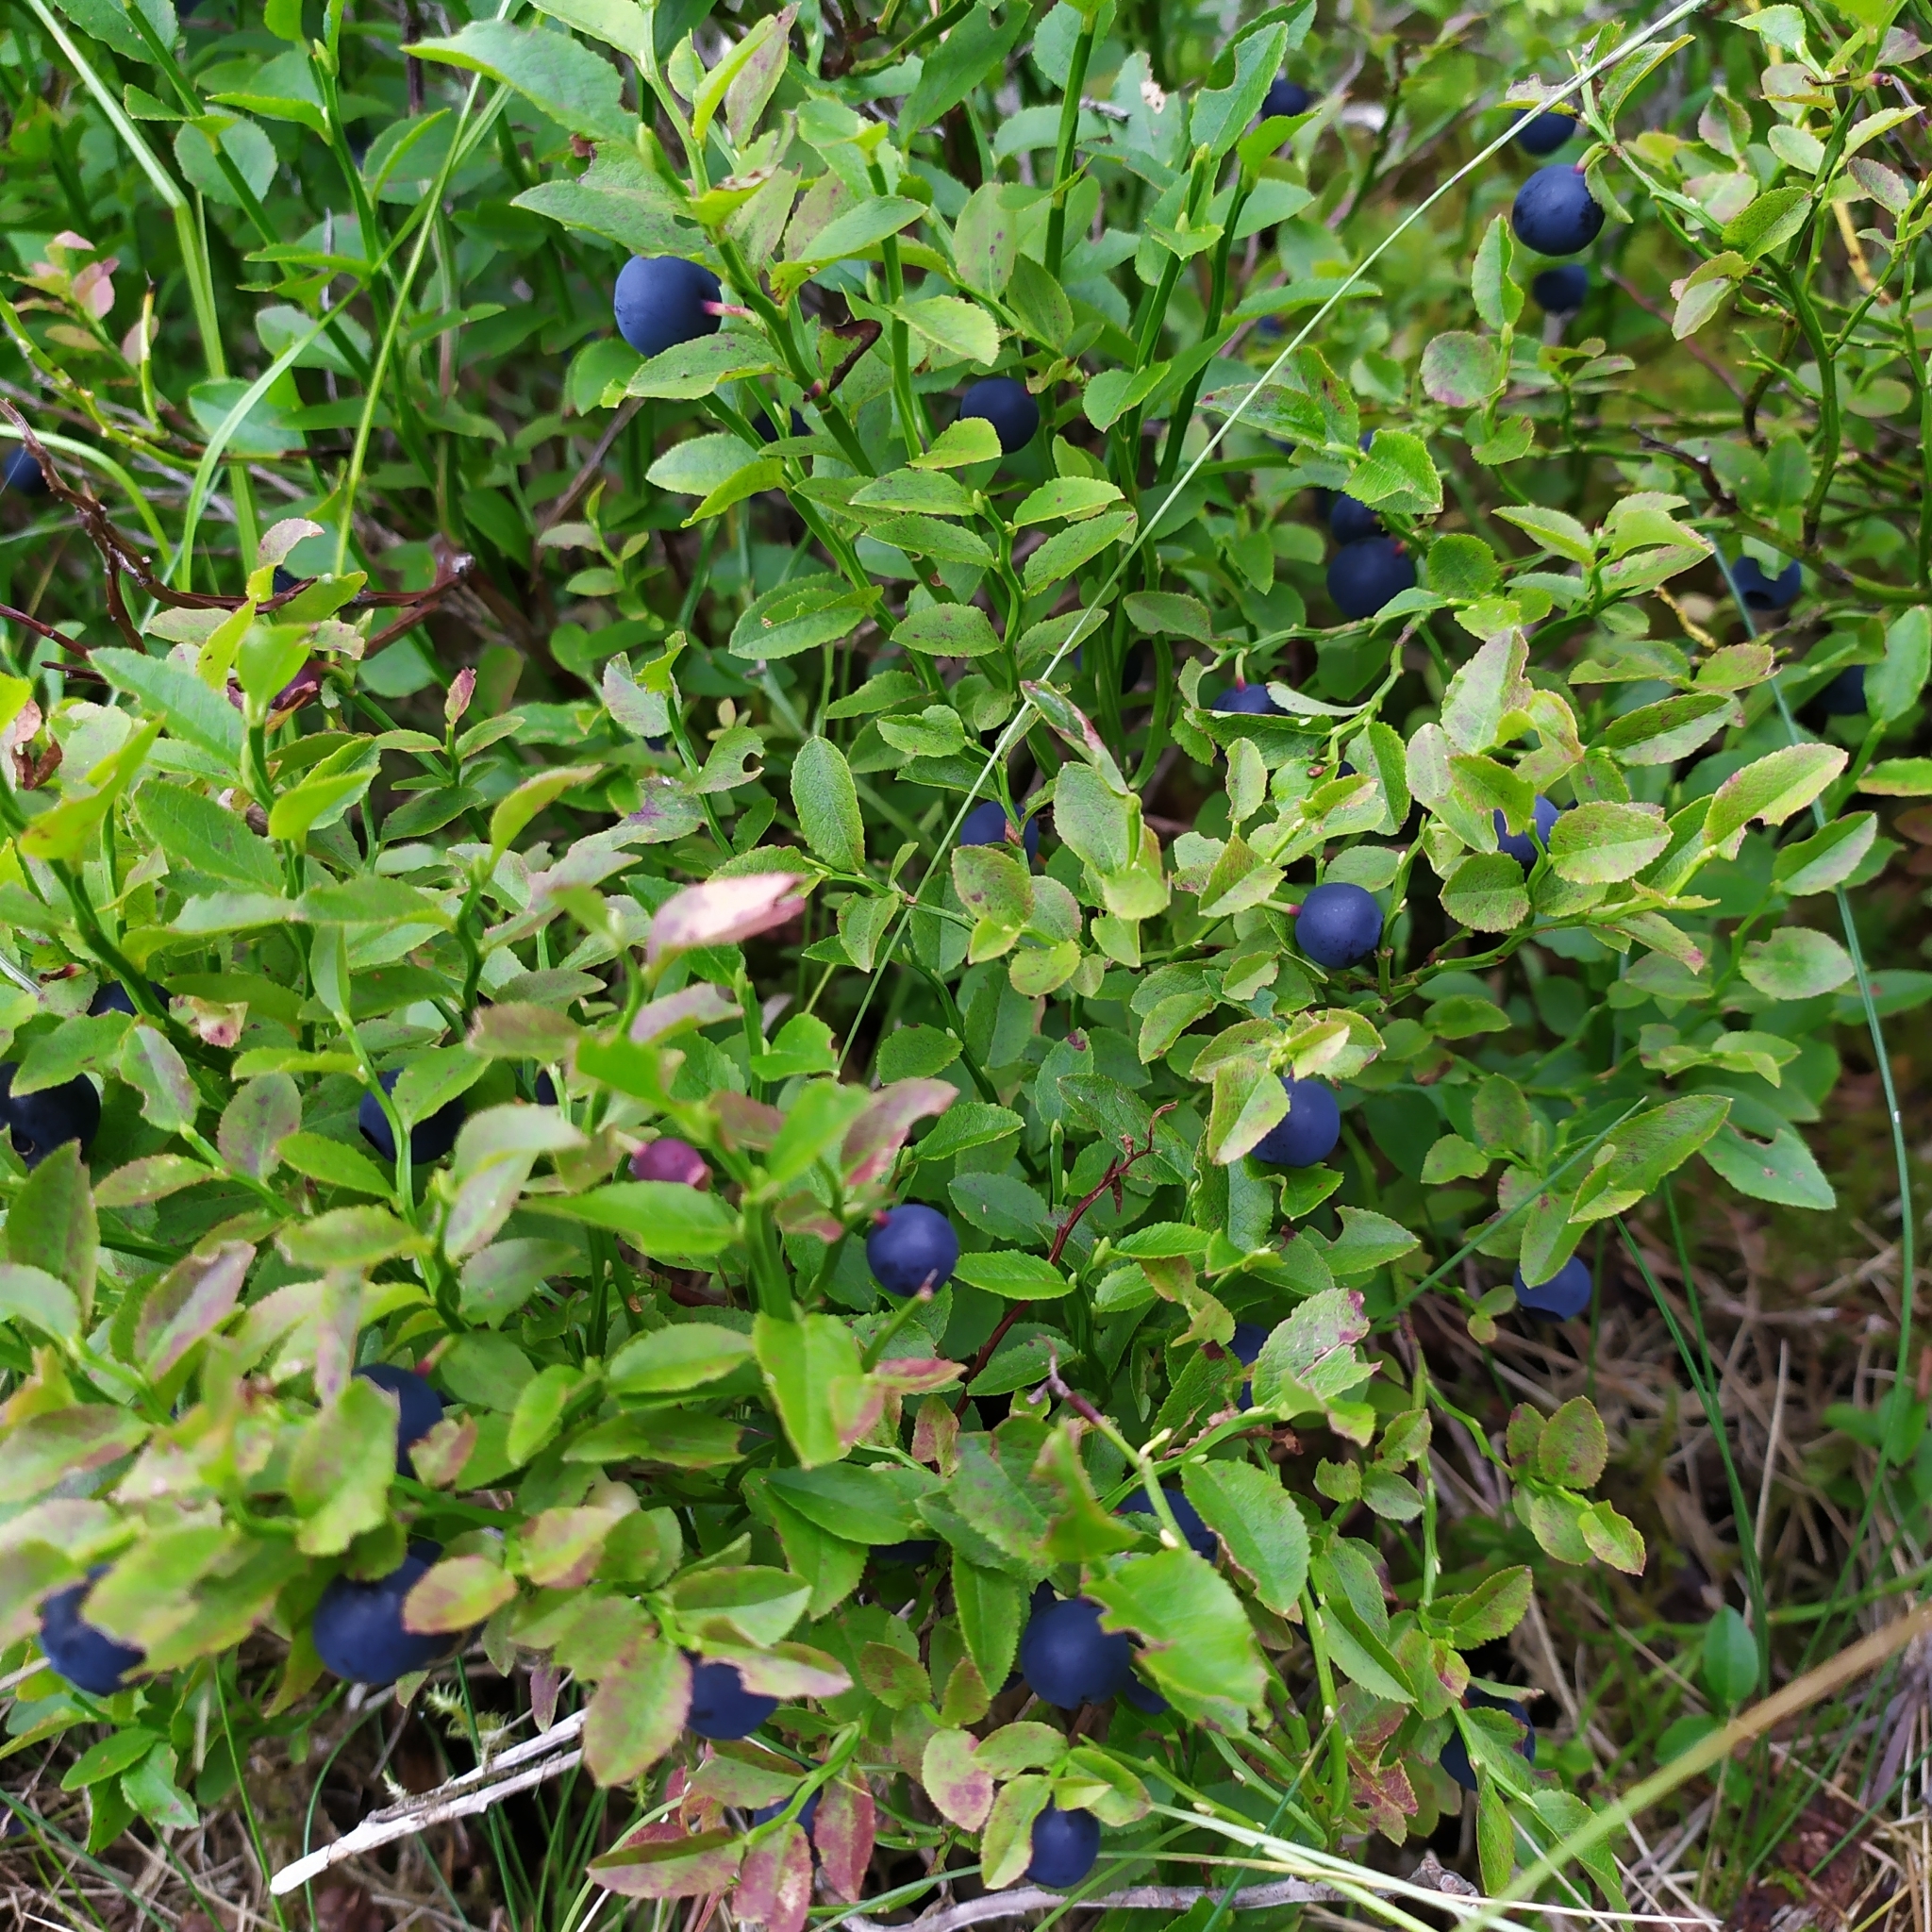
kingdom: Plantae
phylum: Tracheophyta
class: Magnoliopsida
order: Ericales
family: Ericaceae
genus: Vaccinium
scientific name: Vaccinium myrtillus
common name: Bilberry
